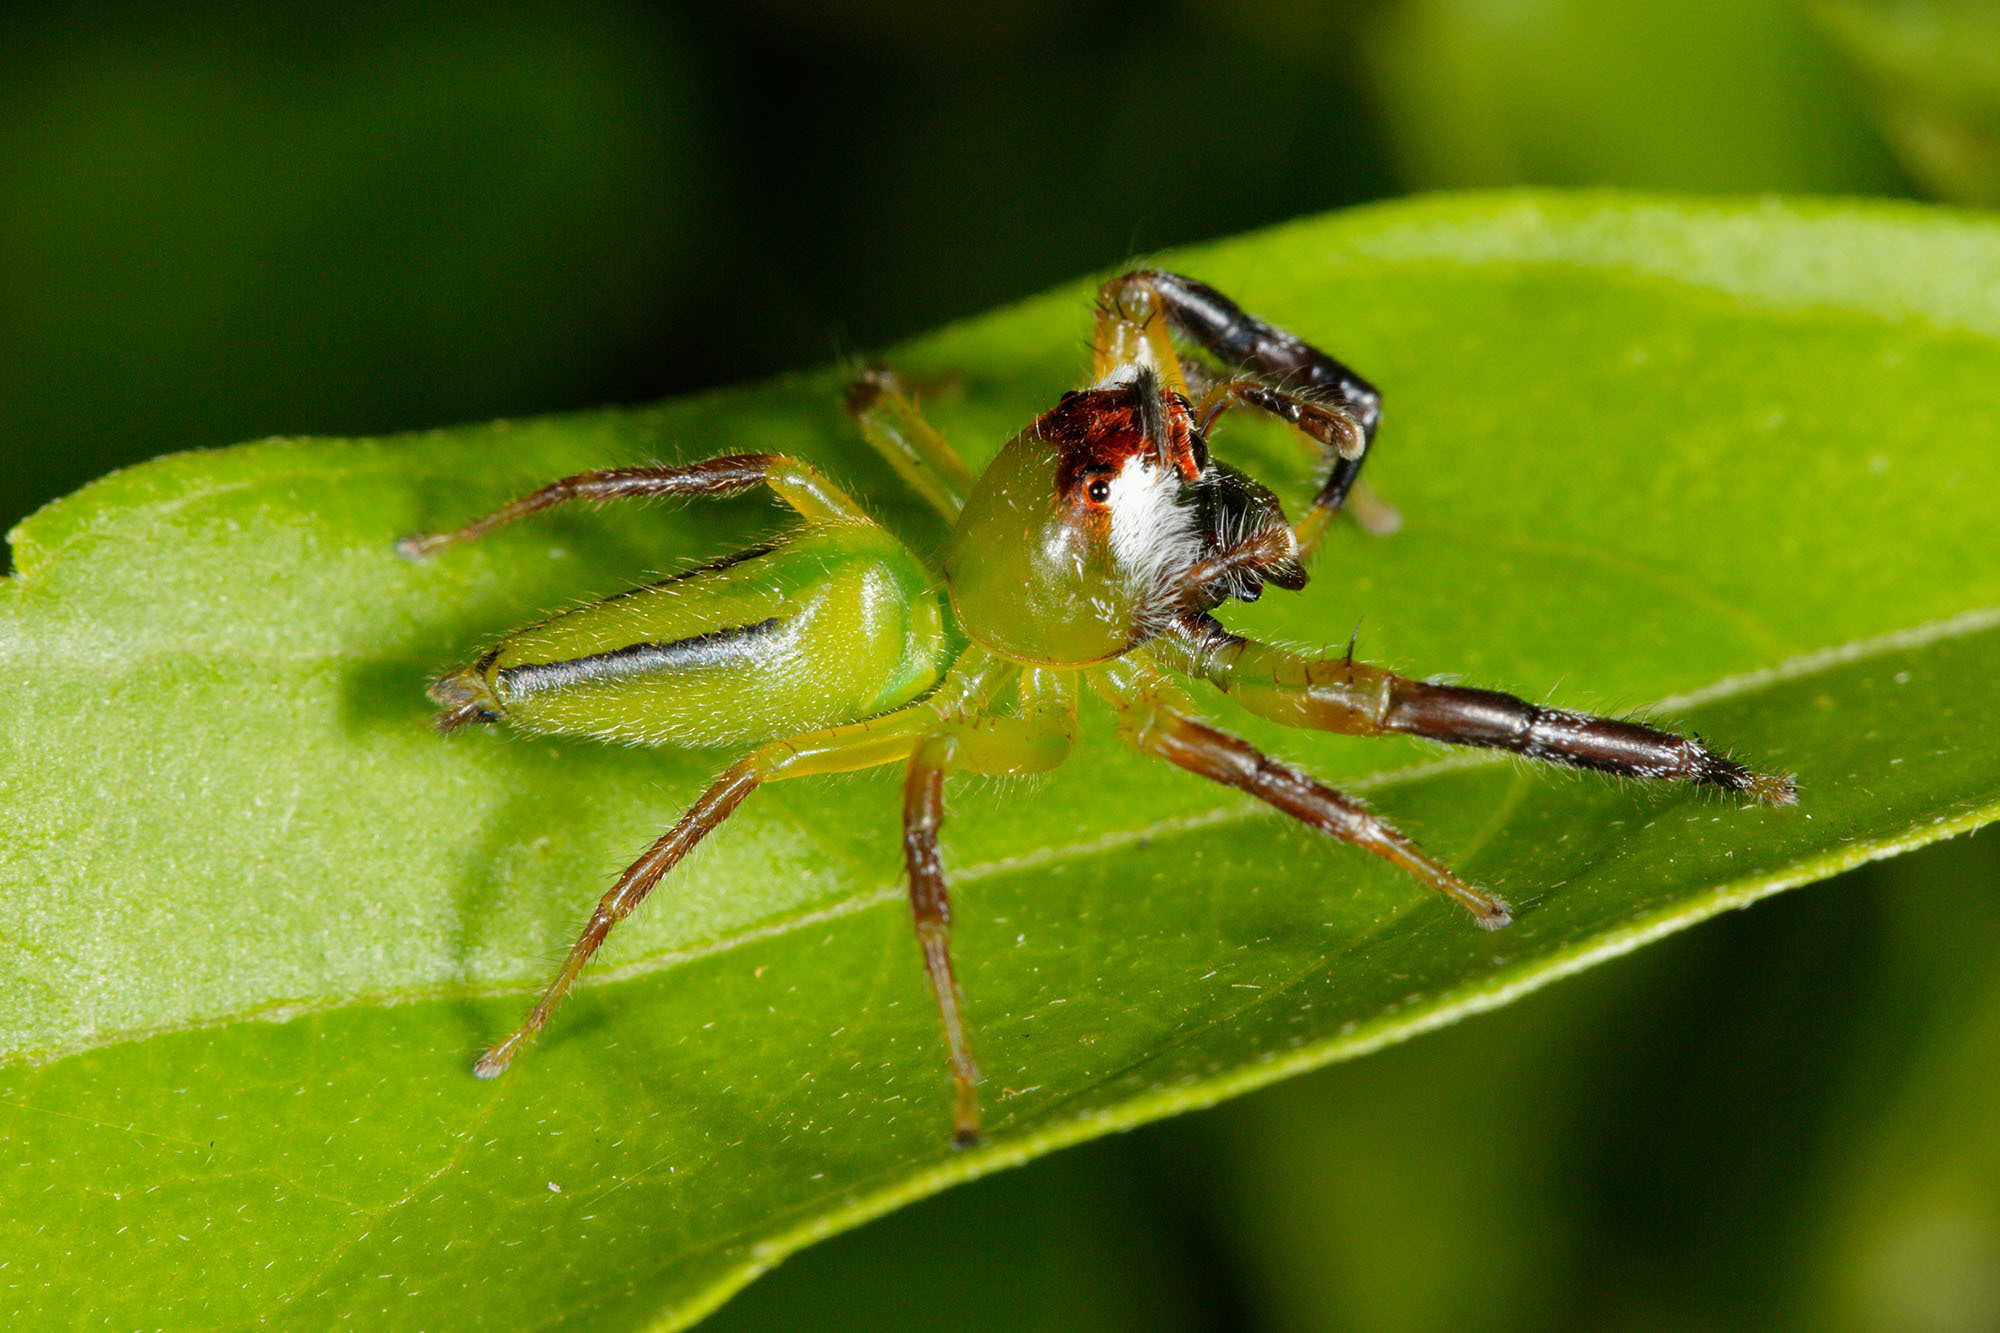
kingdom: Animalia
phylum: Arthropoda
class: Arachnida
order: Araneae
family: Salticidae
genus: Mopsus
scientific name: Mopsus mormon
